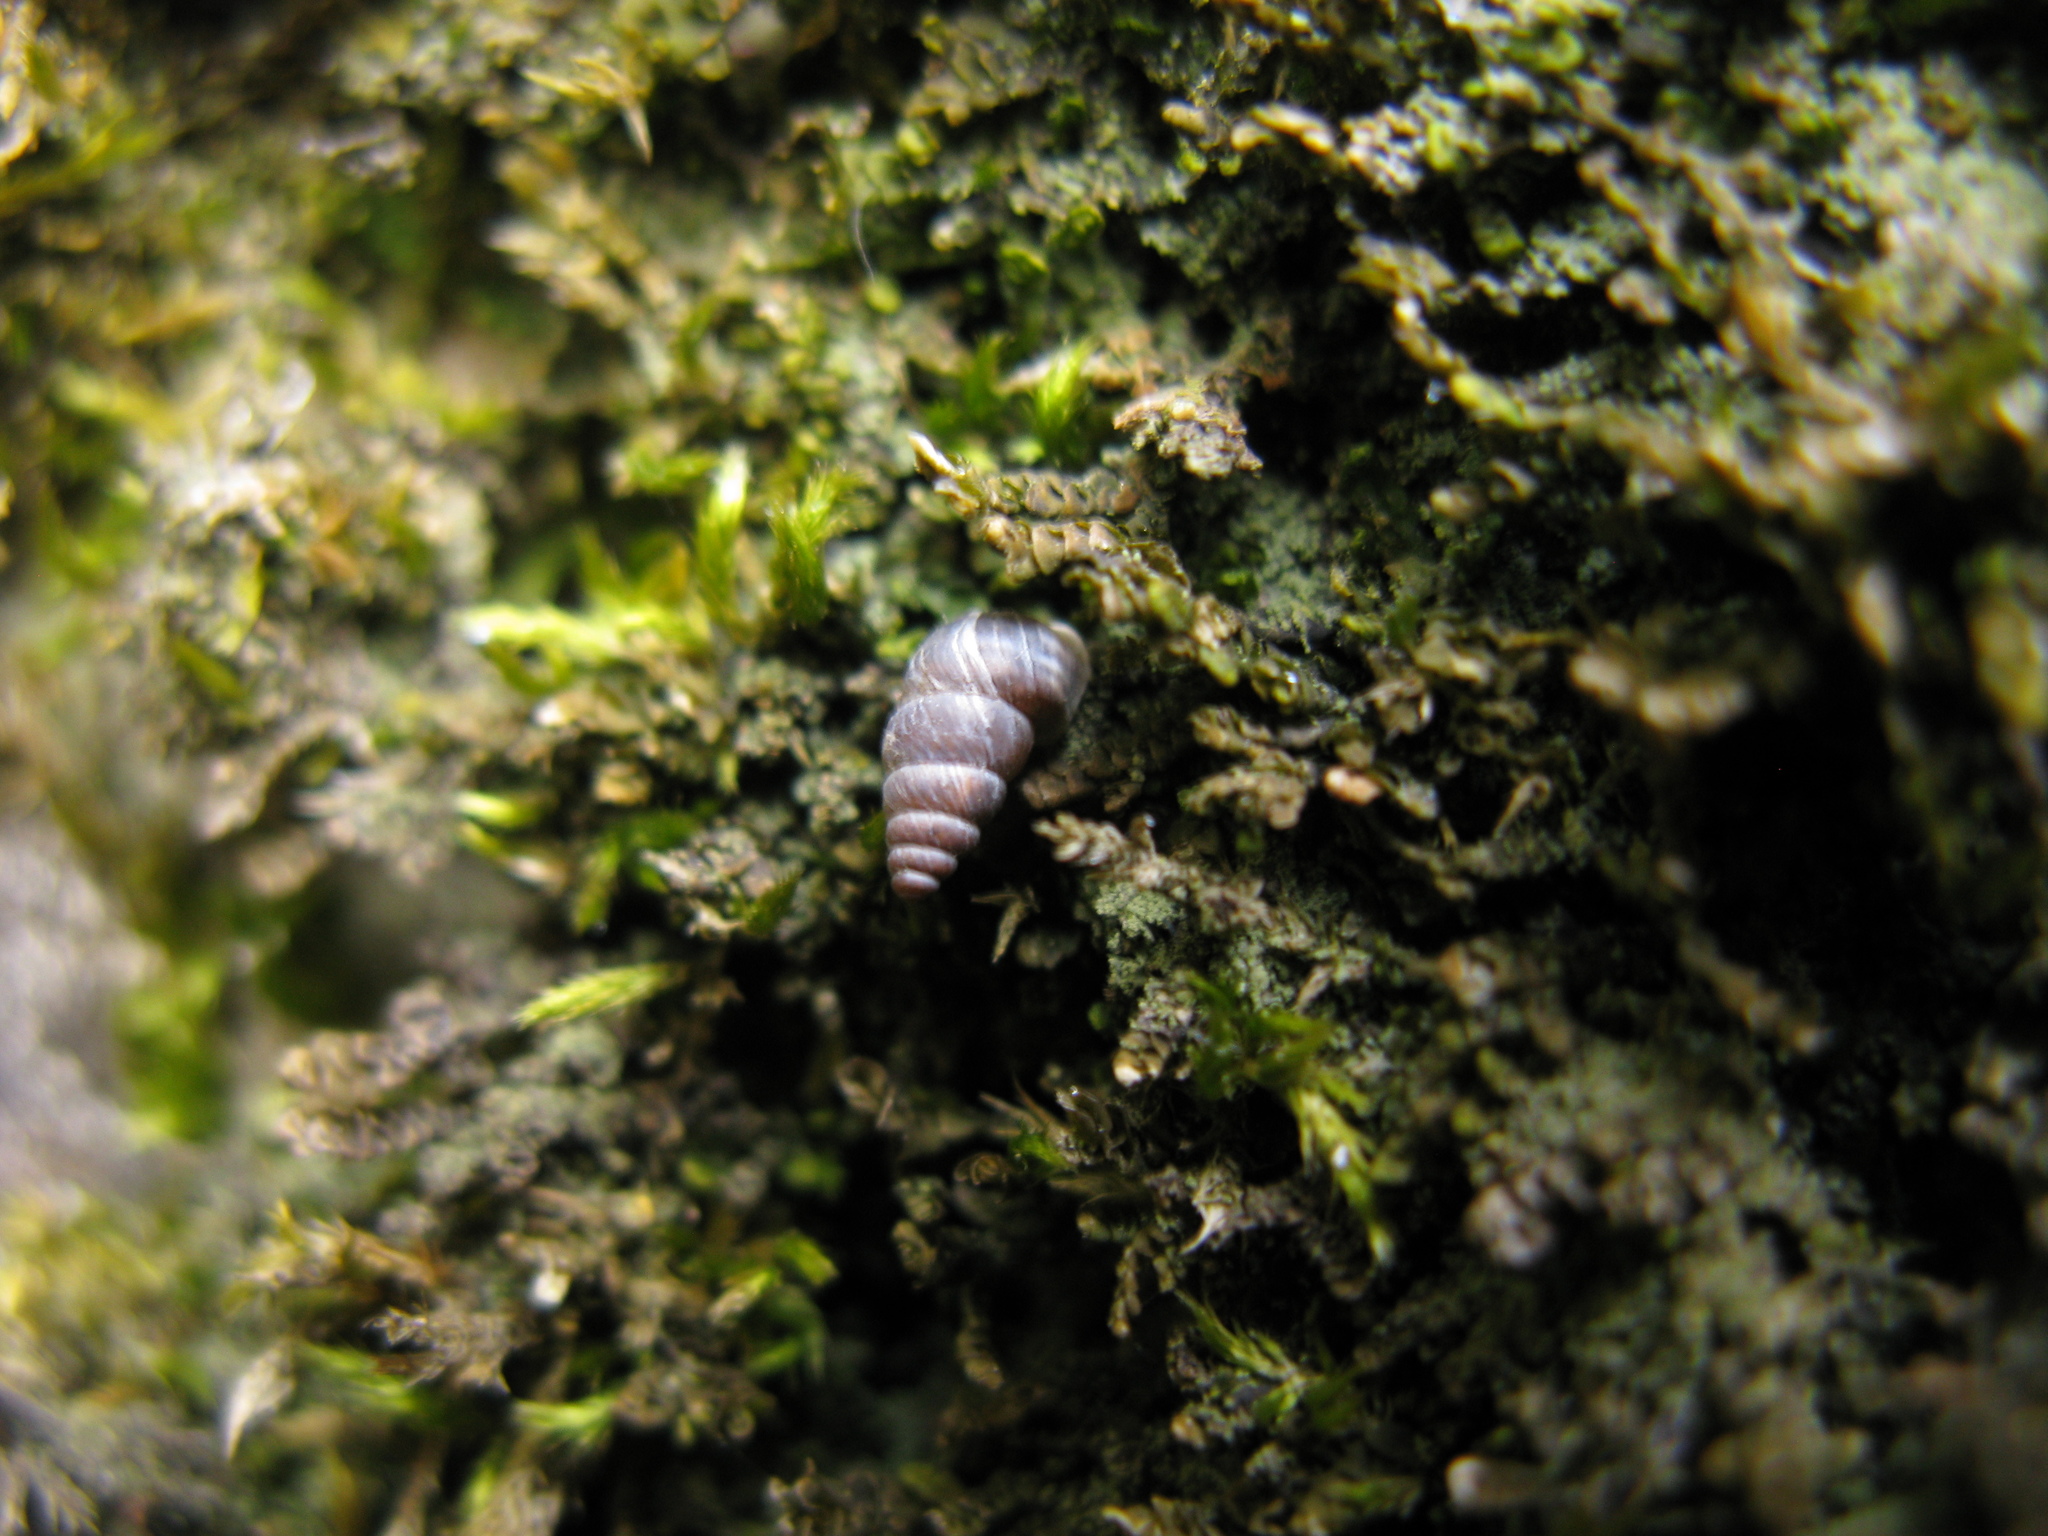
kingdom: Animalia
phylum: Mollusca
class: Gastropoda
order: Stylommatophora
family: Chondrinidae
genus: Chondrina
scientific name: Chondrina arcadica
